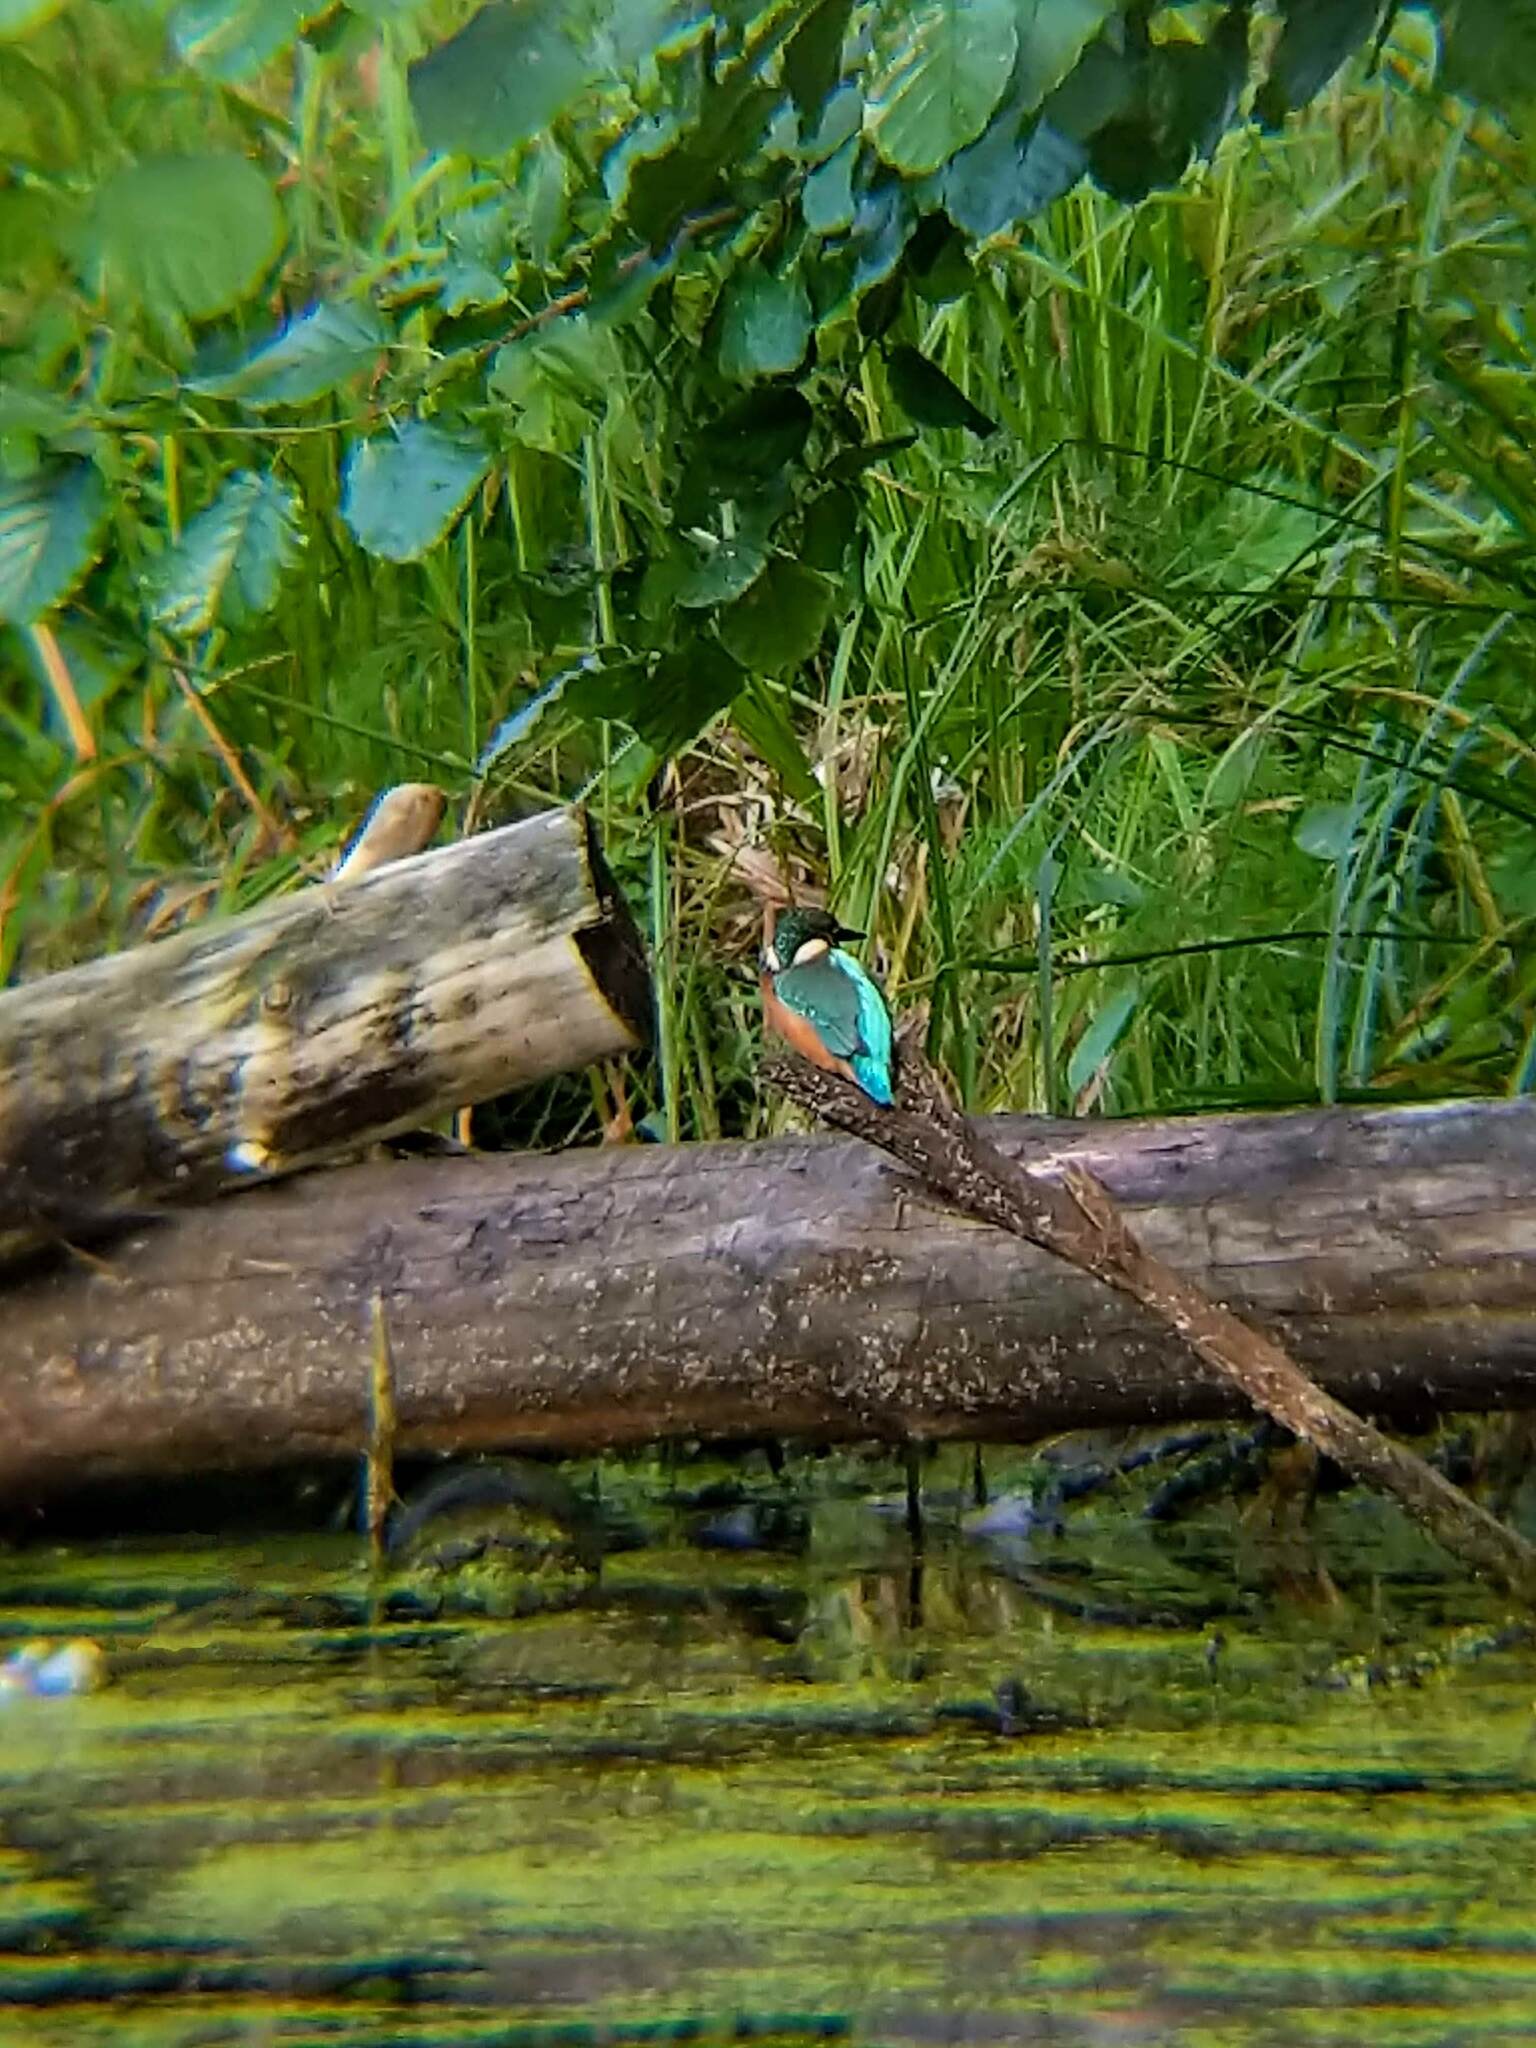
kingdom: Animalia
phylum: Chordata
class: Aves
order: Coraciiformes
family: Alcedinidae
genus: Alcedo
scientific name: Alcedo atthis
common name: Common kingfisher
